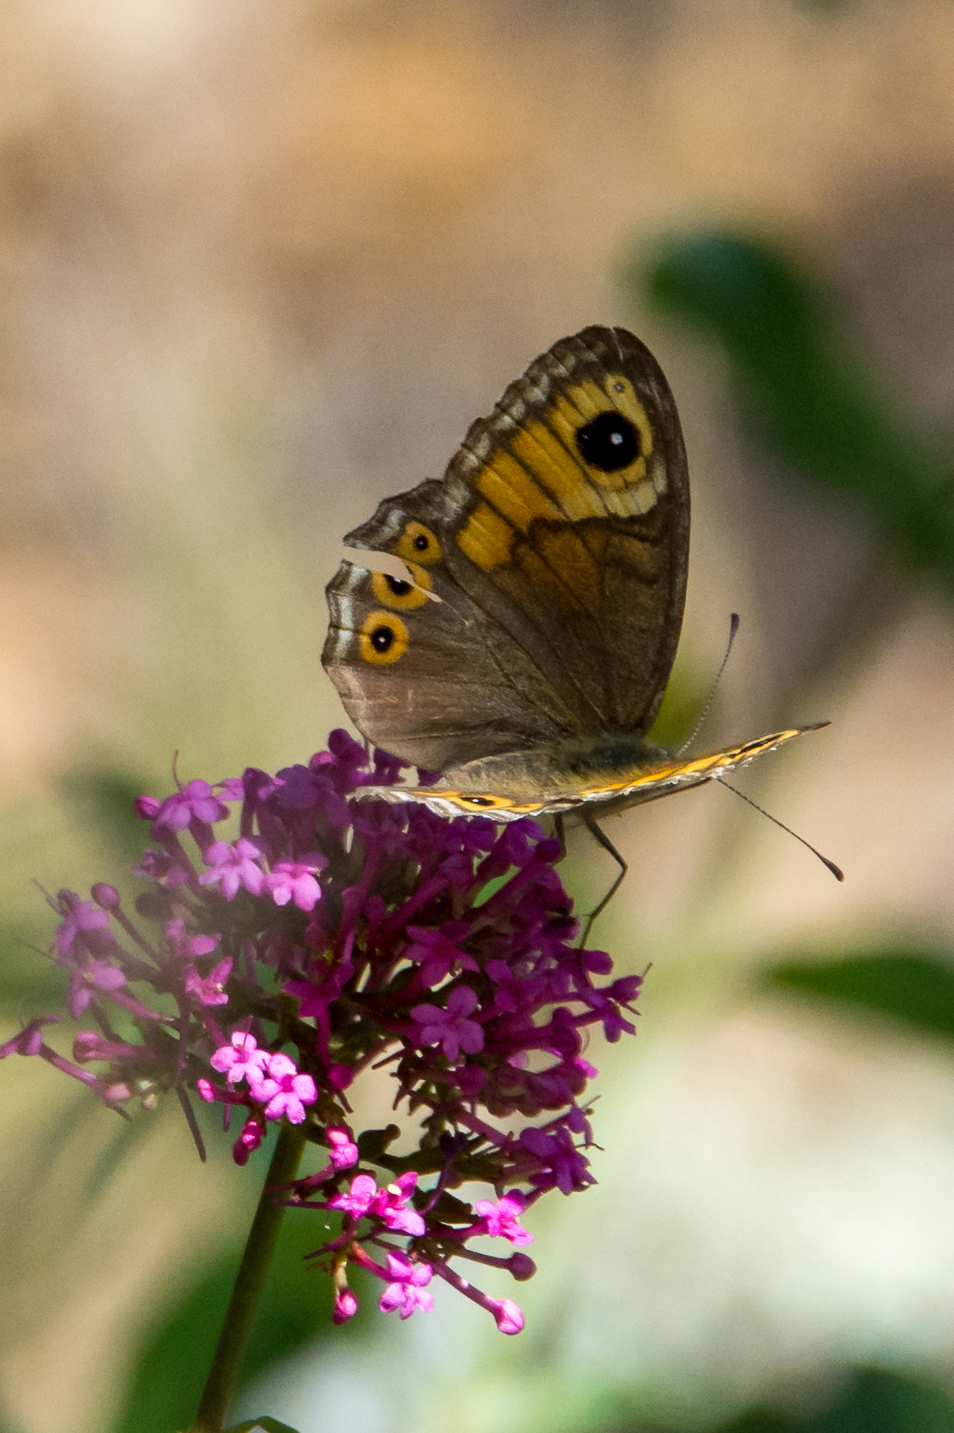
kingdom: Animalia
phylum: Arthropoda
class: Insecta
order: Lepidoptera
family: Nymphalidae
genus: Pararge
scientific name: Pararge Lasiommata maera
